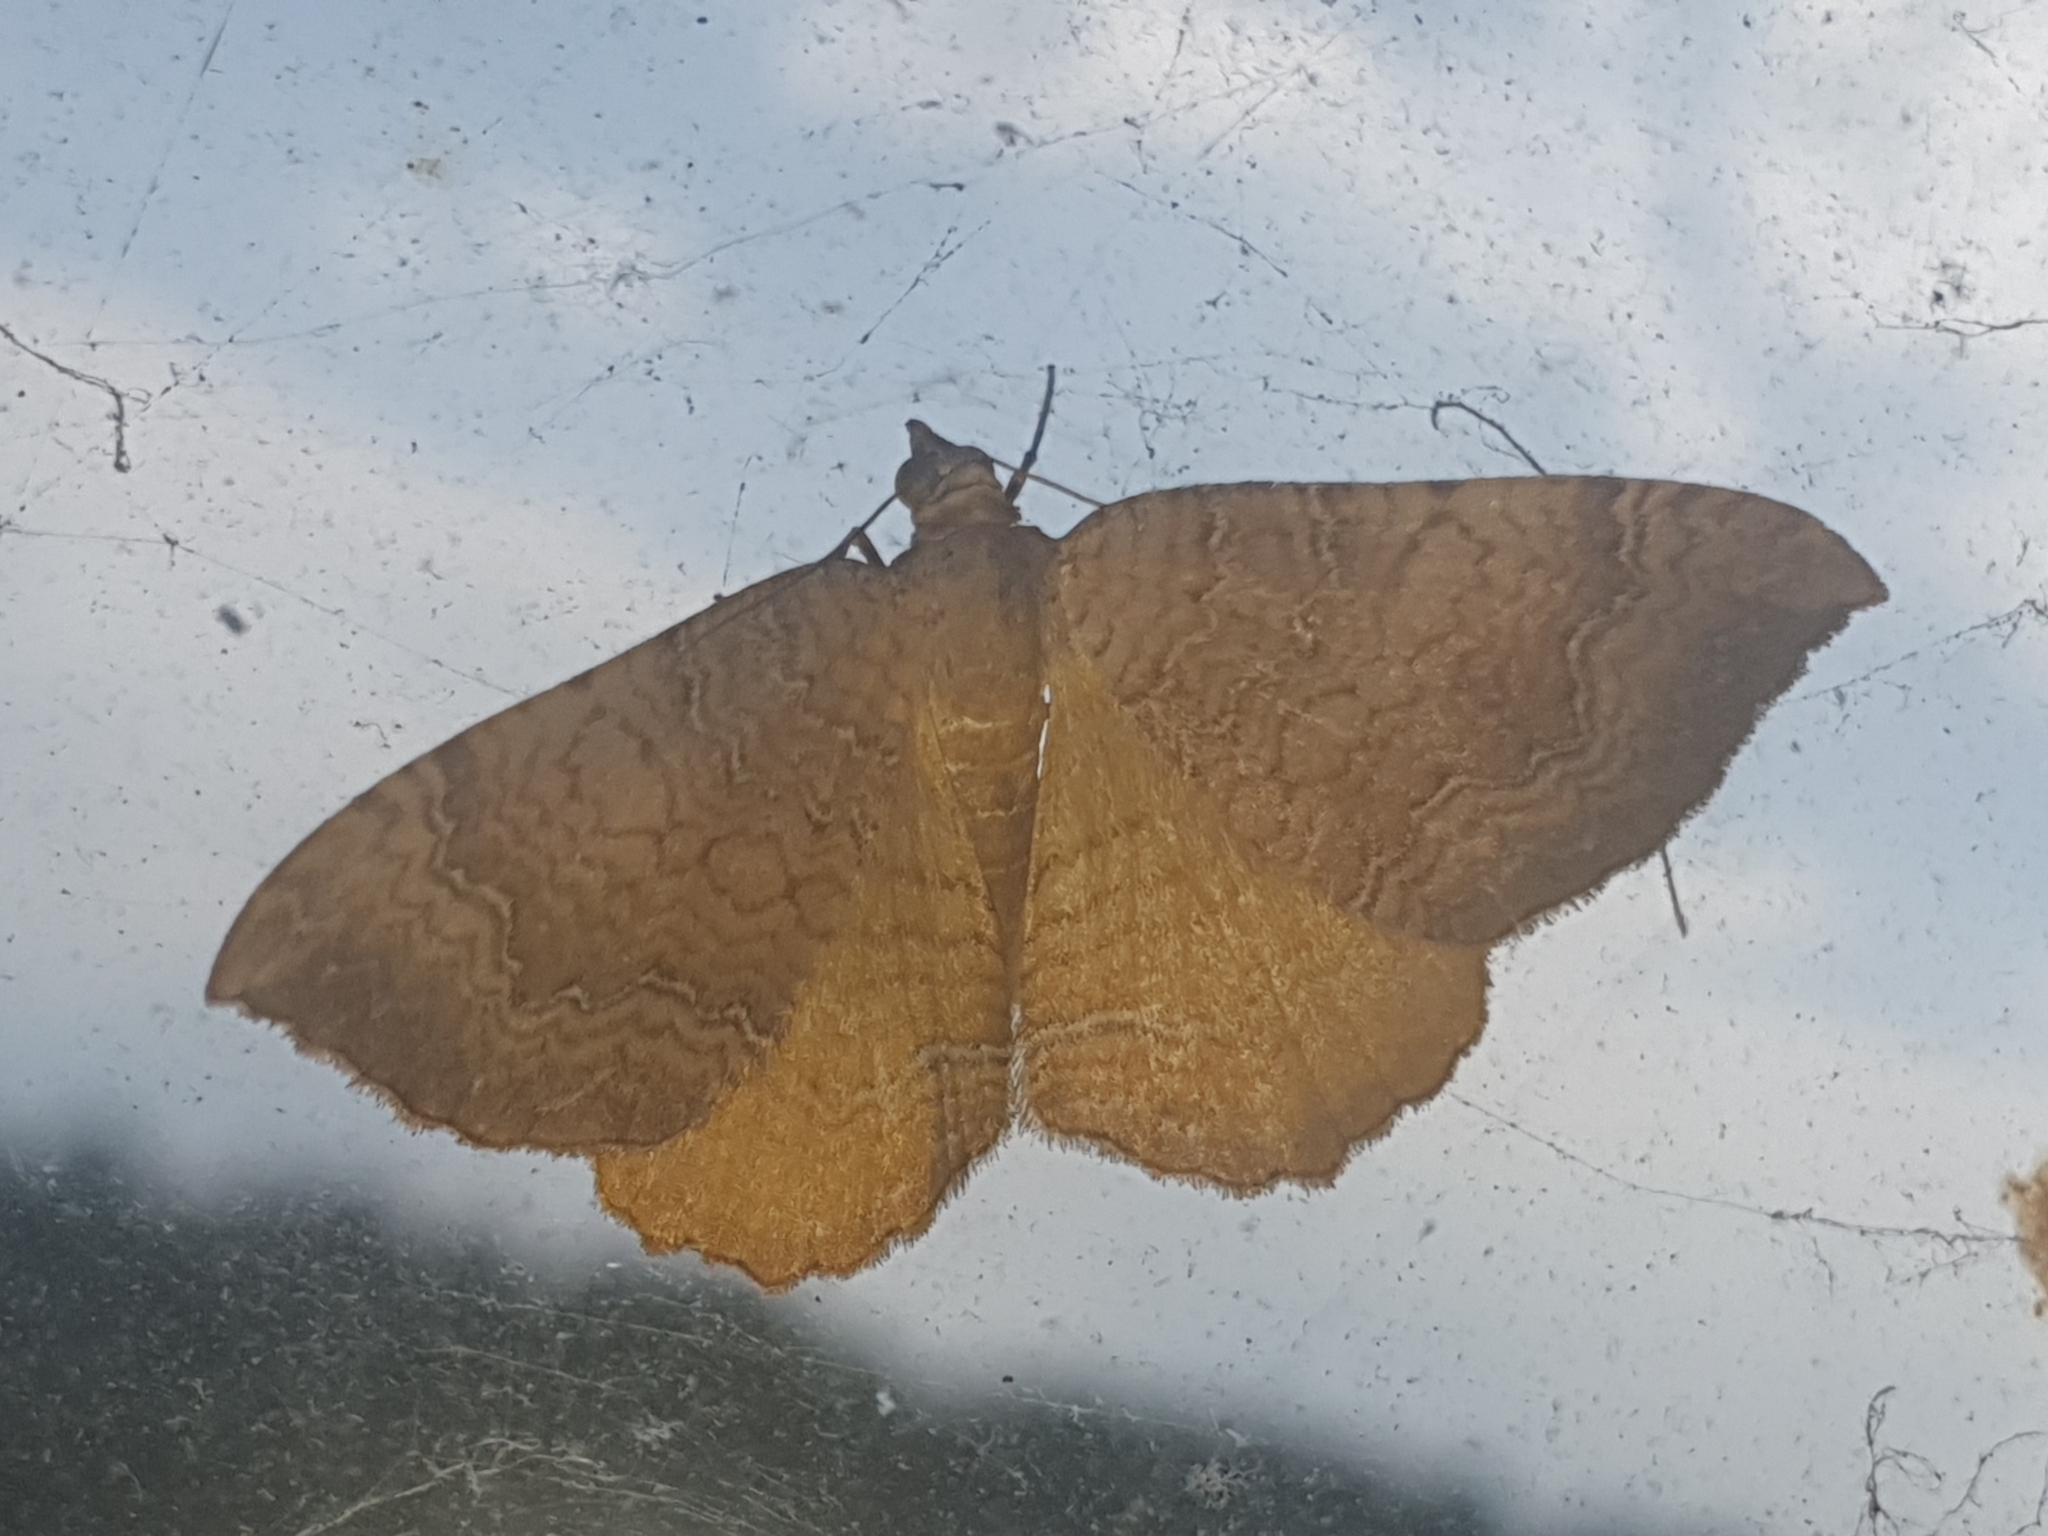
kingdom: Animalia
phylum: Arthropoda
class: Insecta
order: Lepidoptera
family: Geometridae
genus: Camptogramma
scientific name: Camptogramma bilineata
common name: Yellow shell
